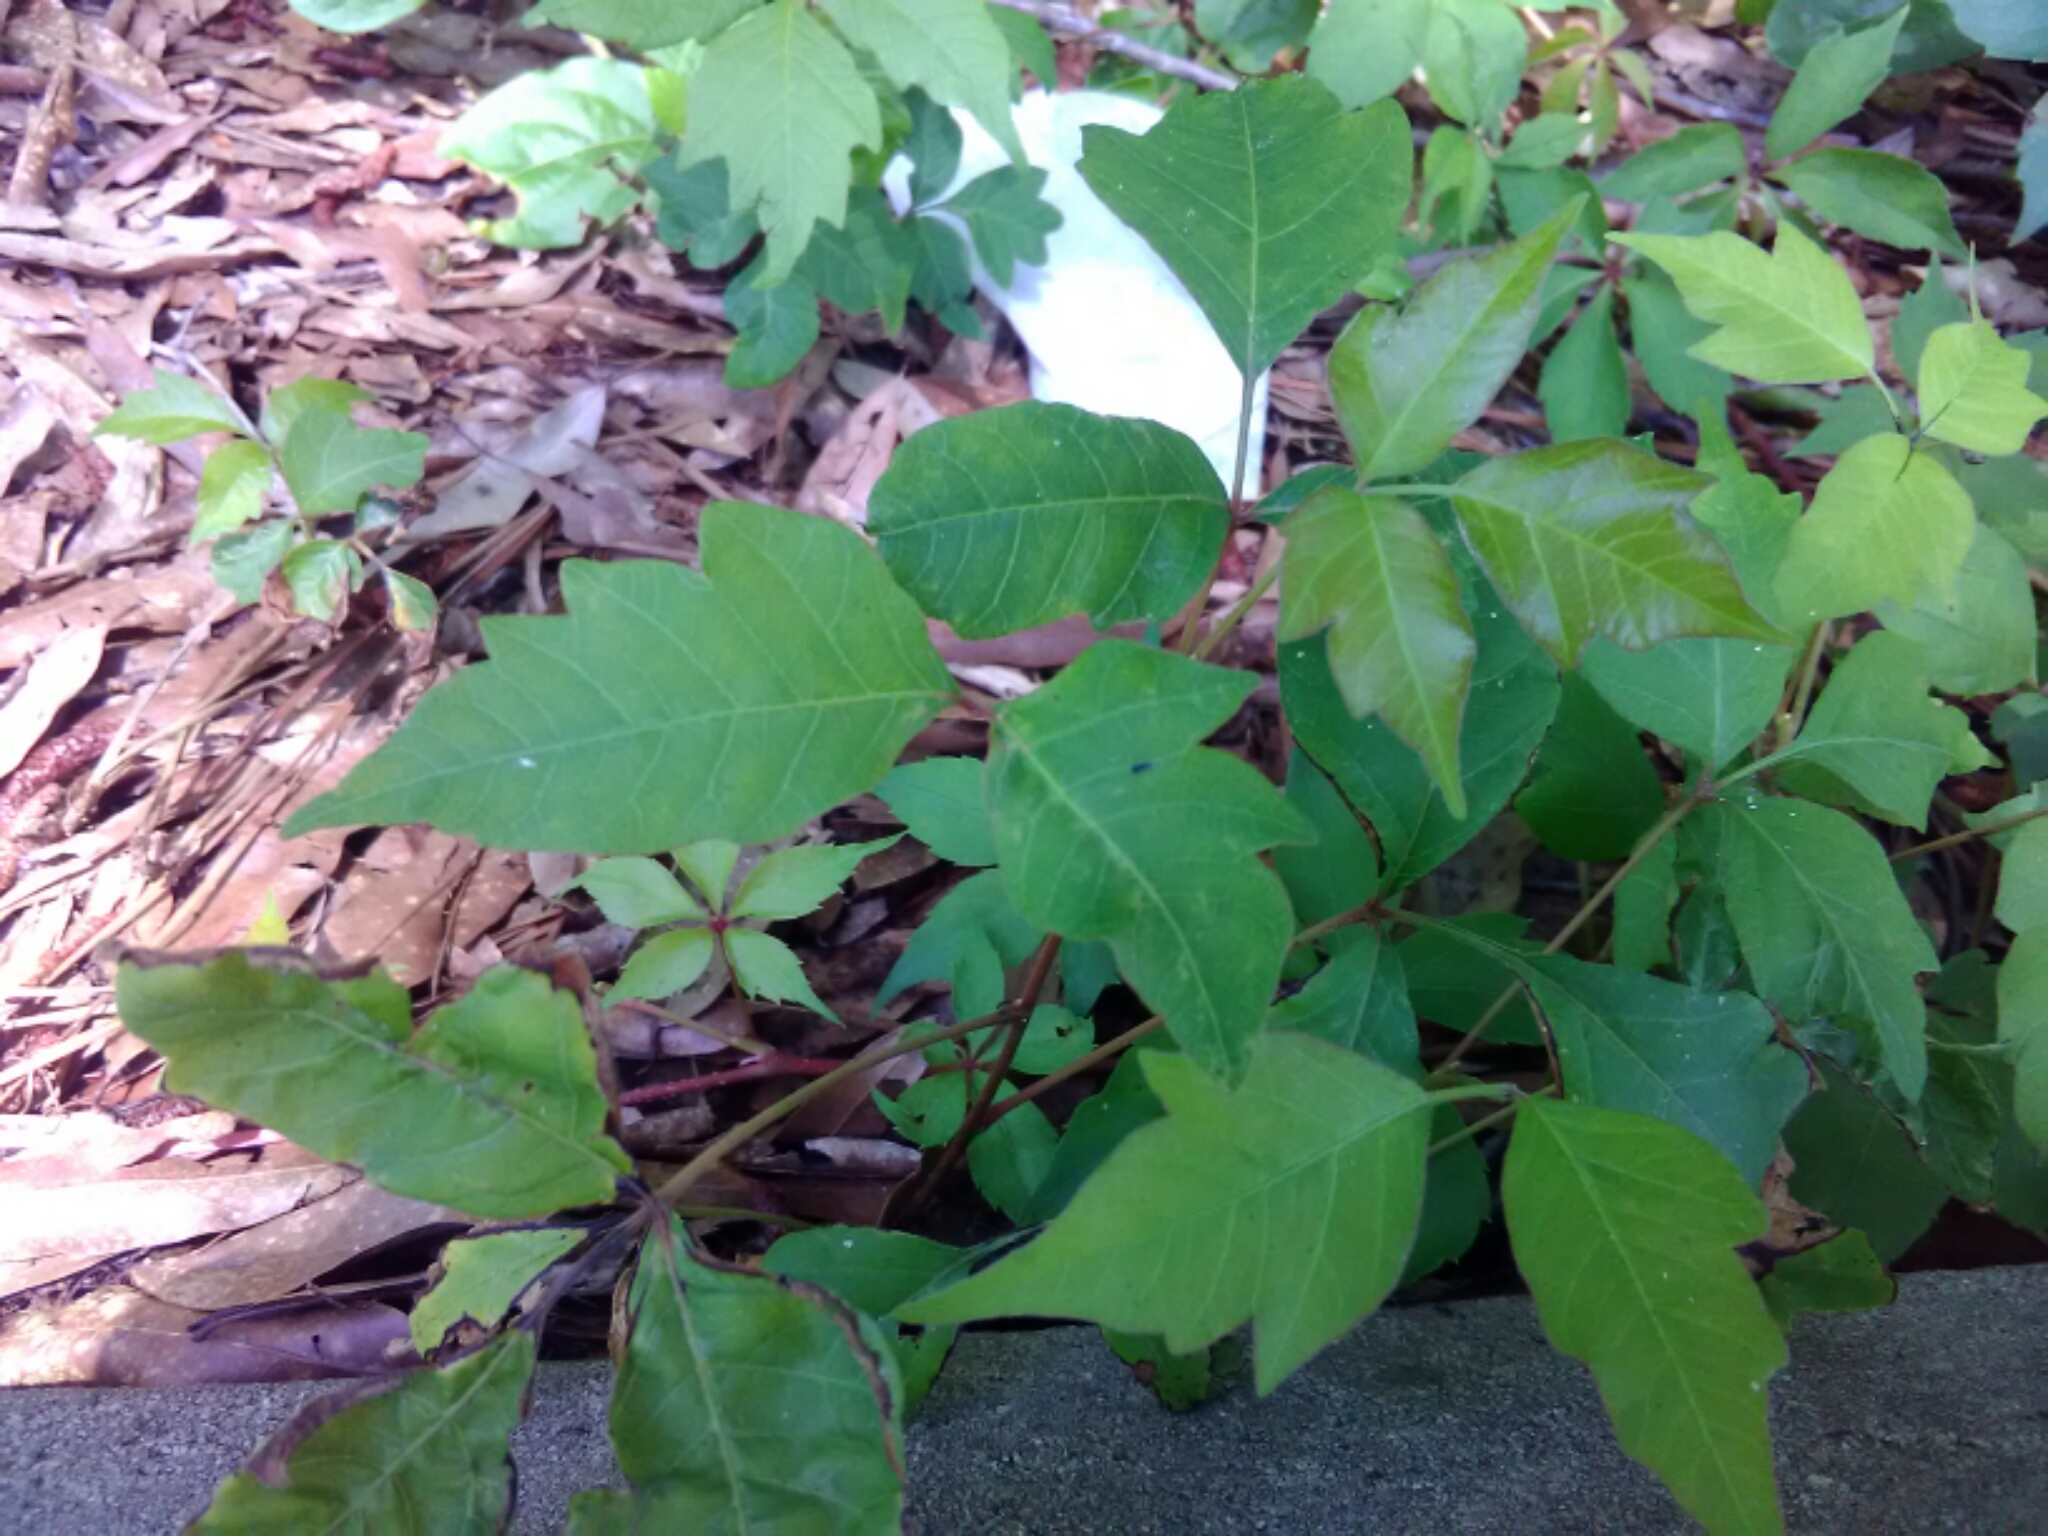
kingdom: Plantae
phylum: Tracheophyta
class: Magnoliopsida
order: Sapindales
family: Anacardiaceae
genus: Toxicodendron
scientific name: Toxicodendron radicans
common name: Poison ivy
